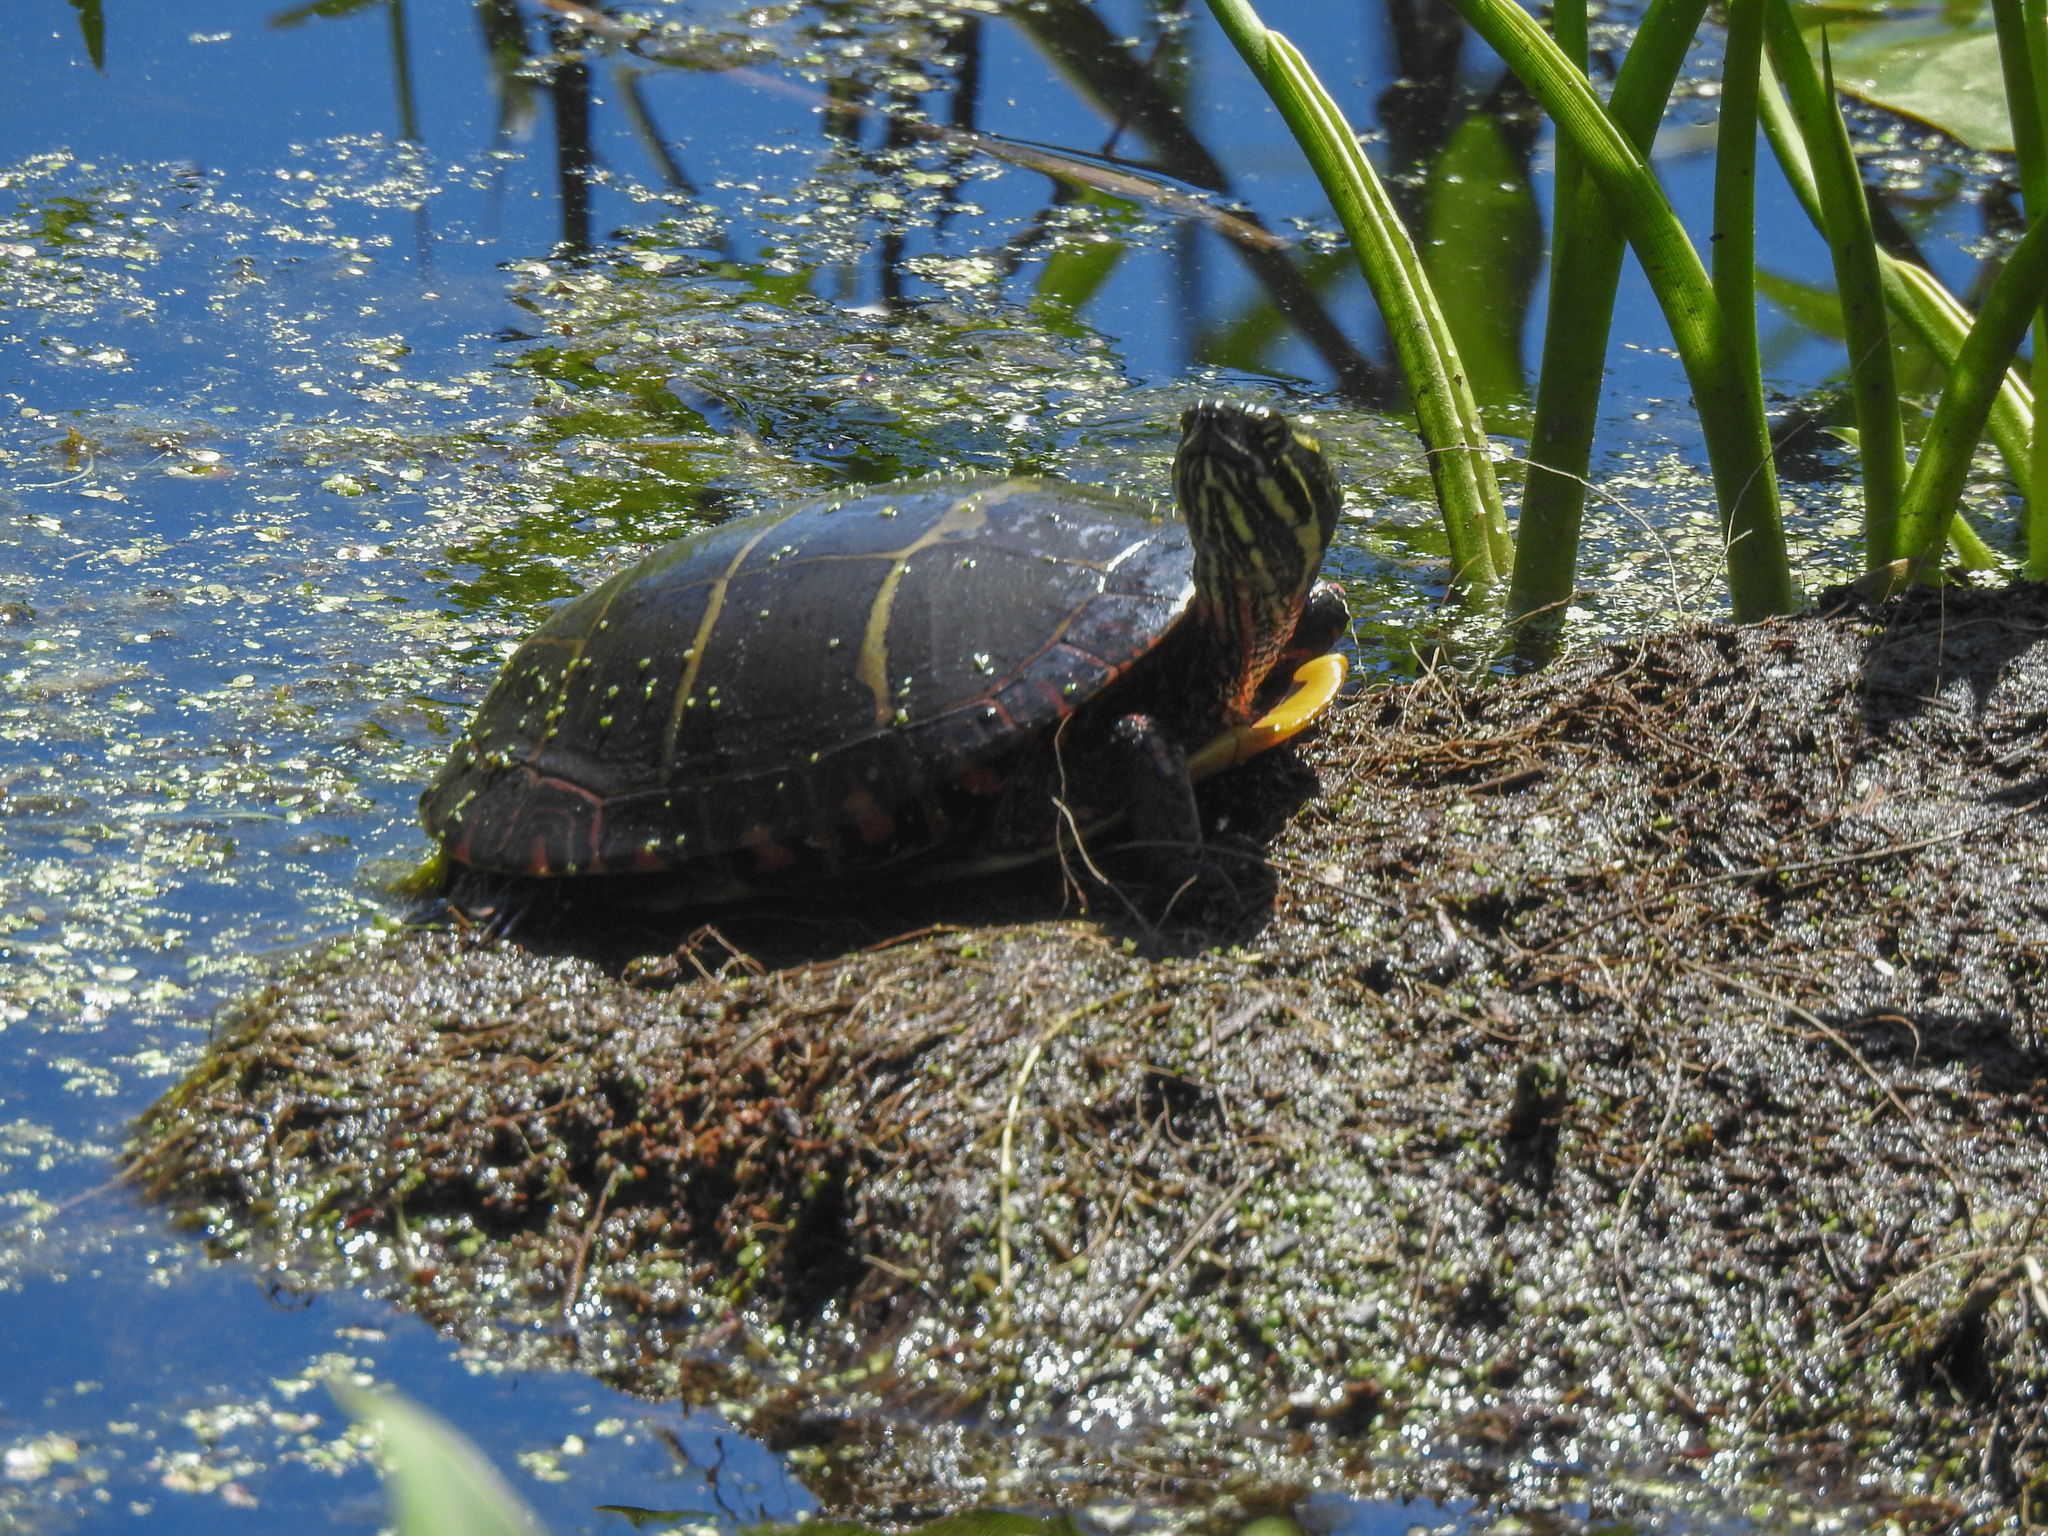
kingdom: Animalia
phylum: Chordata
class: Testudines
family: Emydidae
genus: Chrysemys
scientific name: Chrysemys picta
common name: Painted turtle
